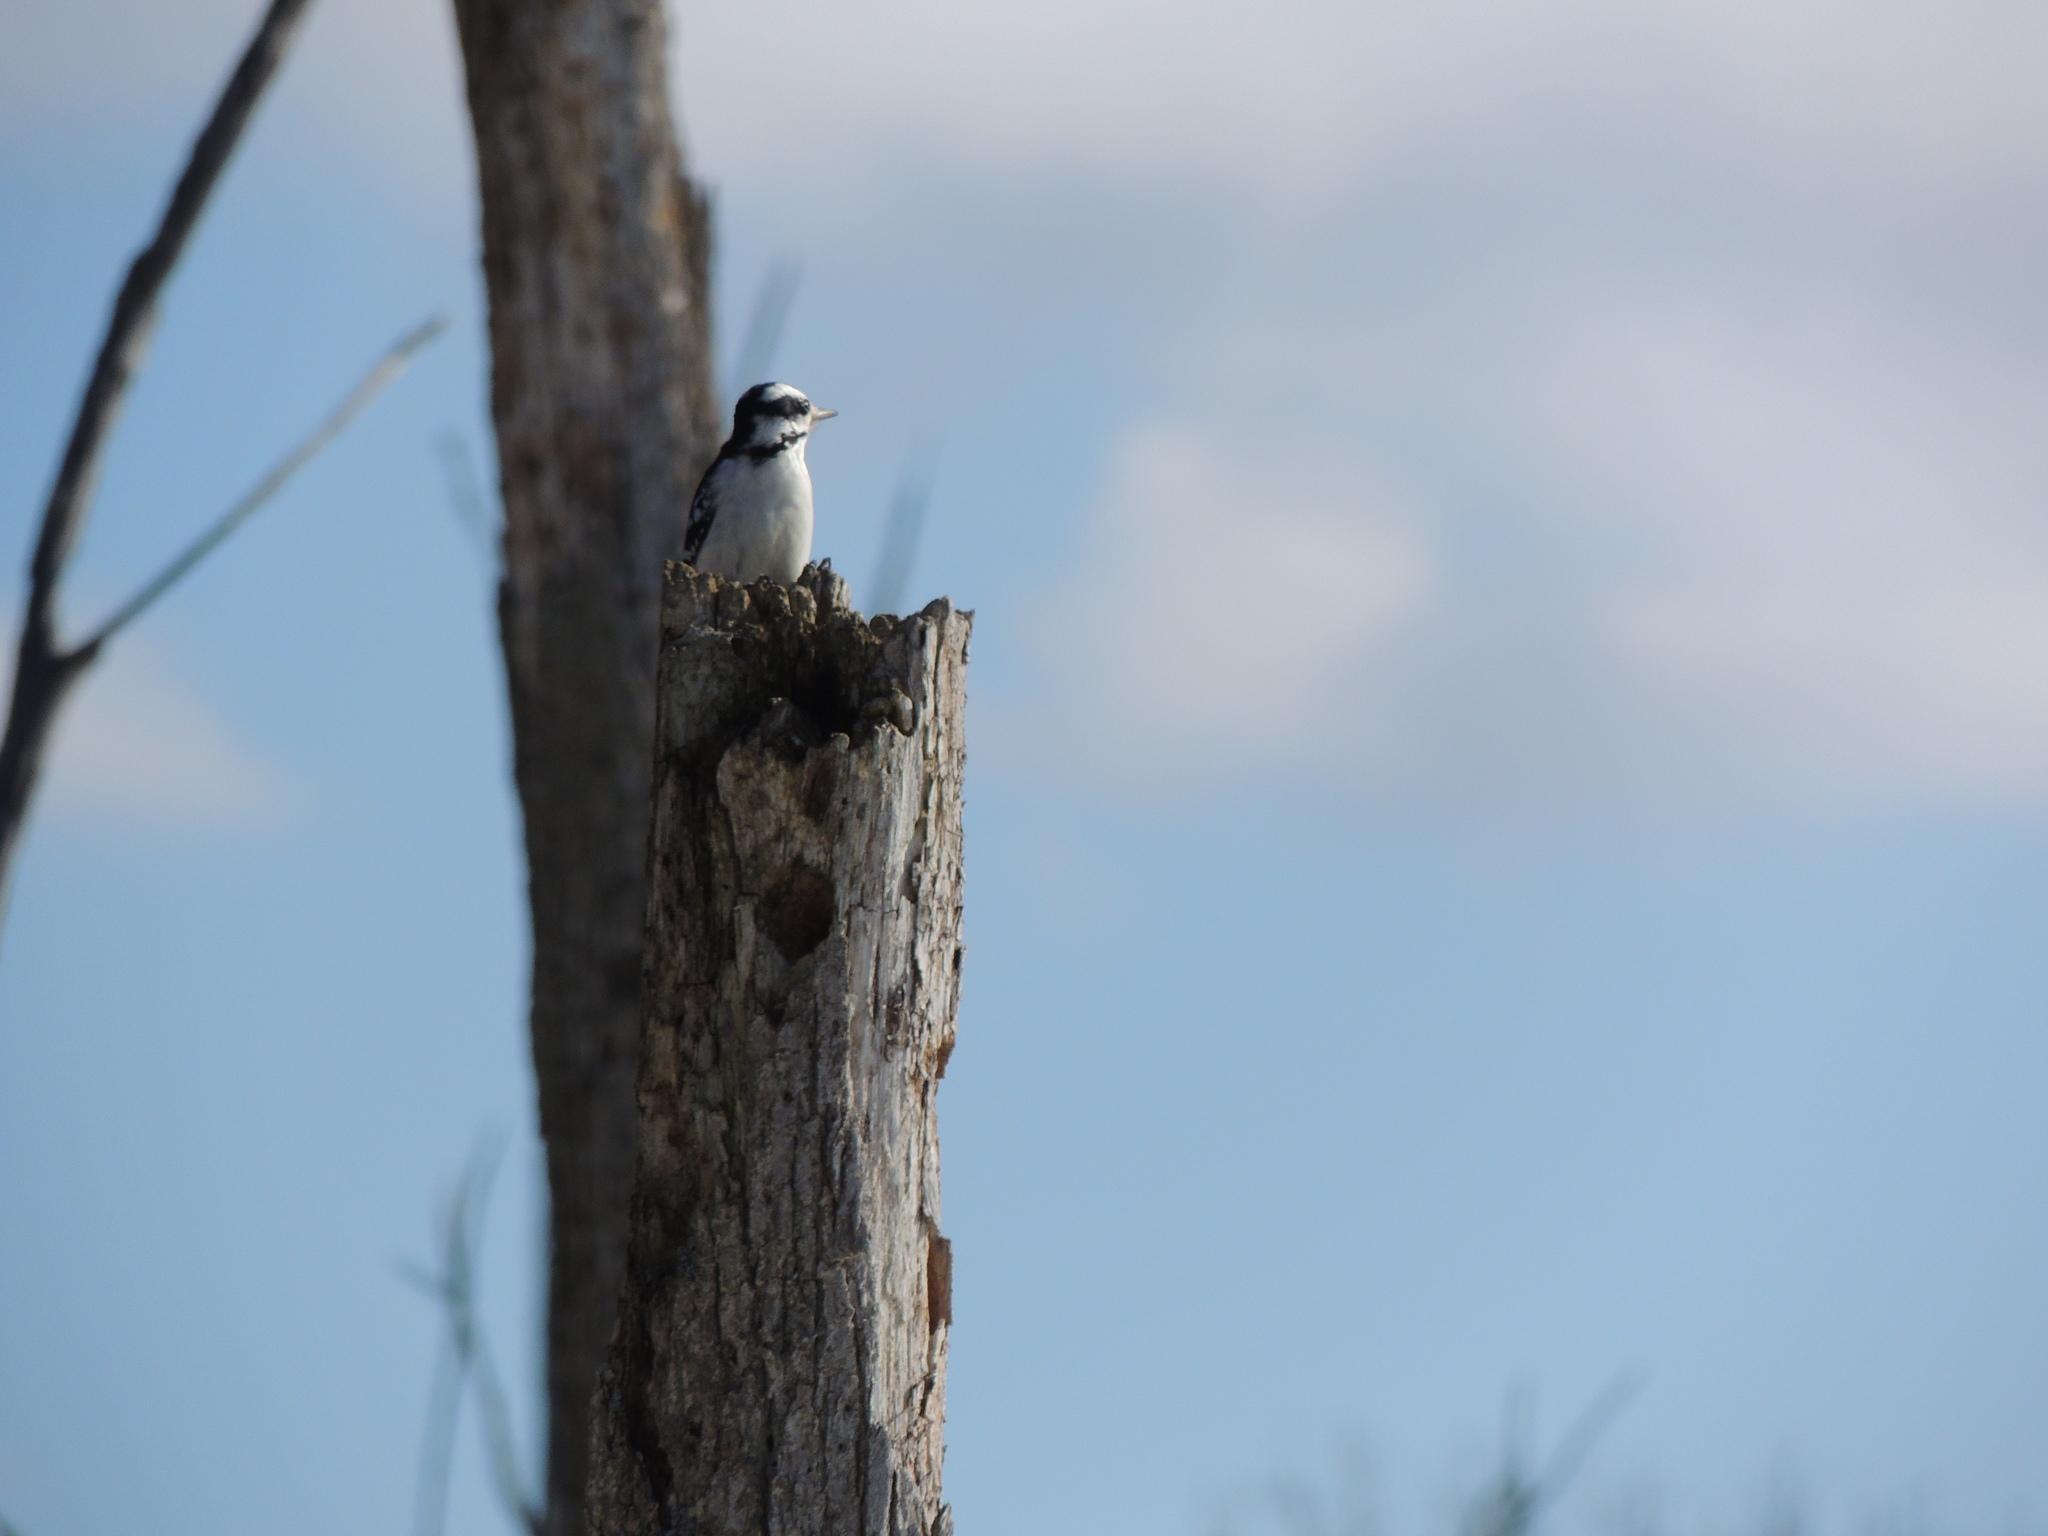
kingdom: Animalia
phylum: Chordata
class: Aves
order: Piciformes
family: Picidae
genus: Leuconotopicus
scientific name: Leuconotopicus villosus
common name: Hairy woodpecker
